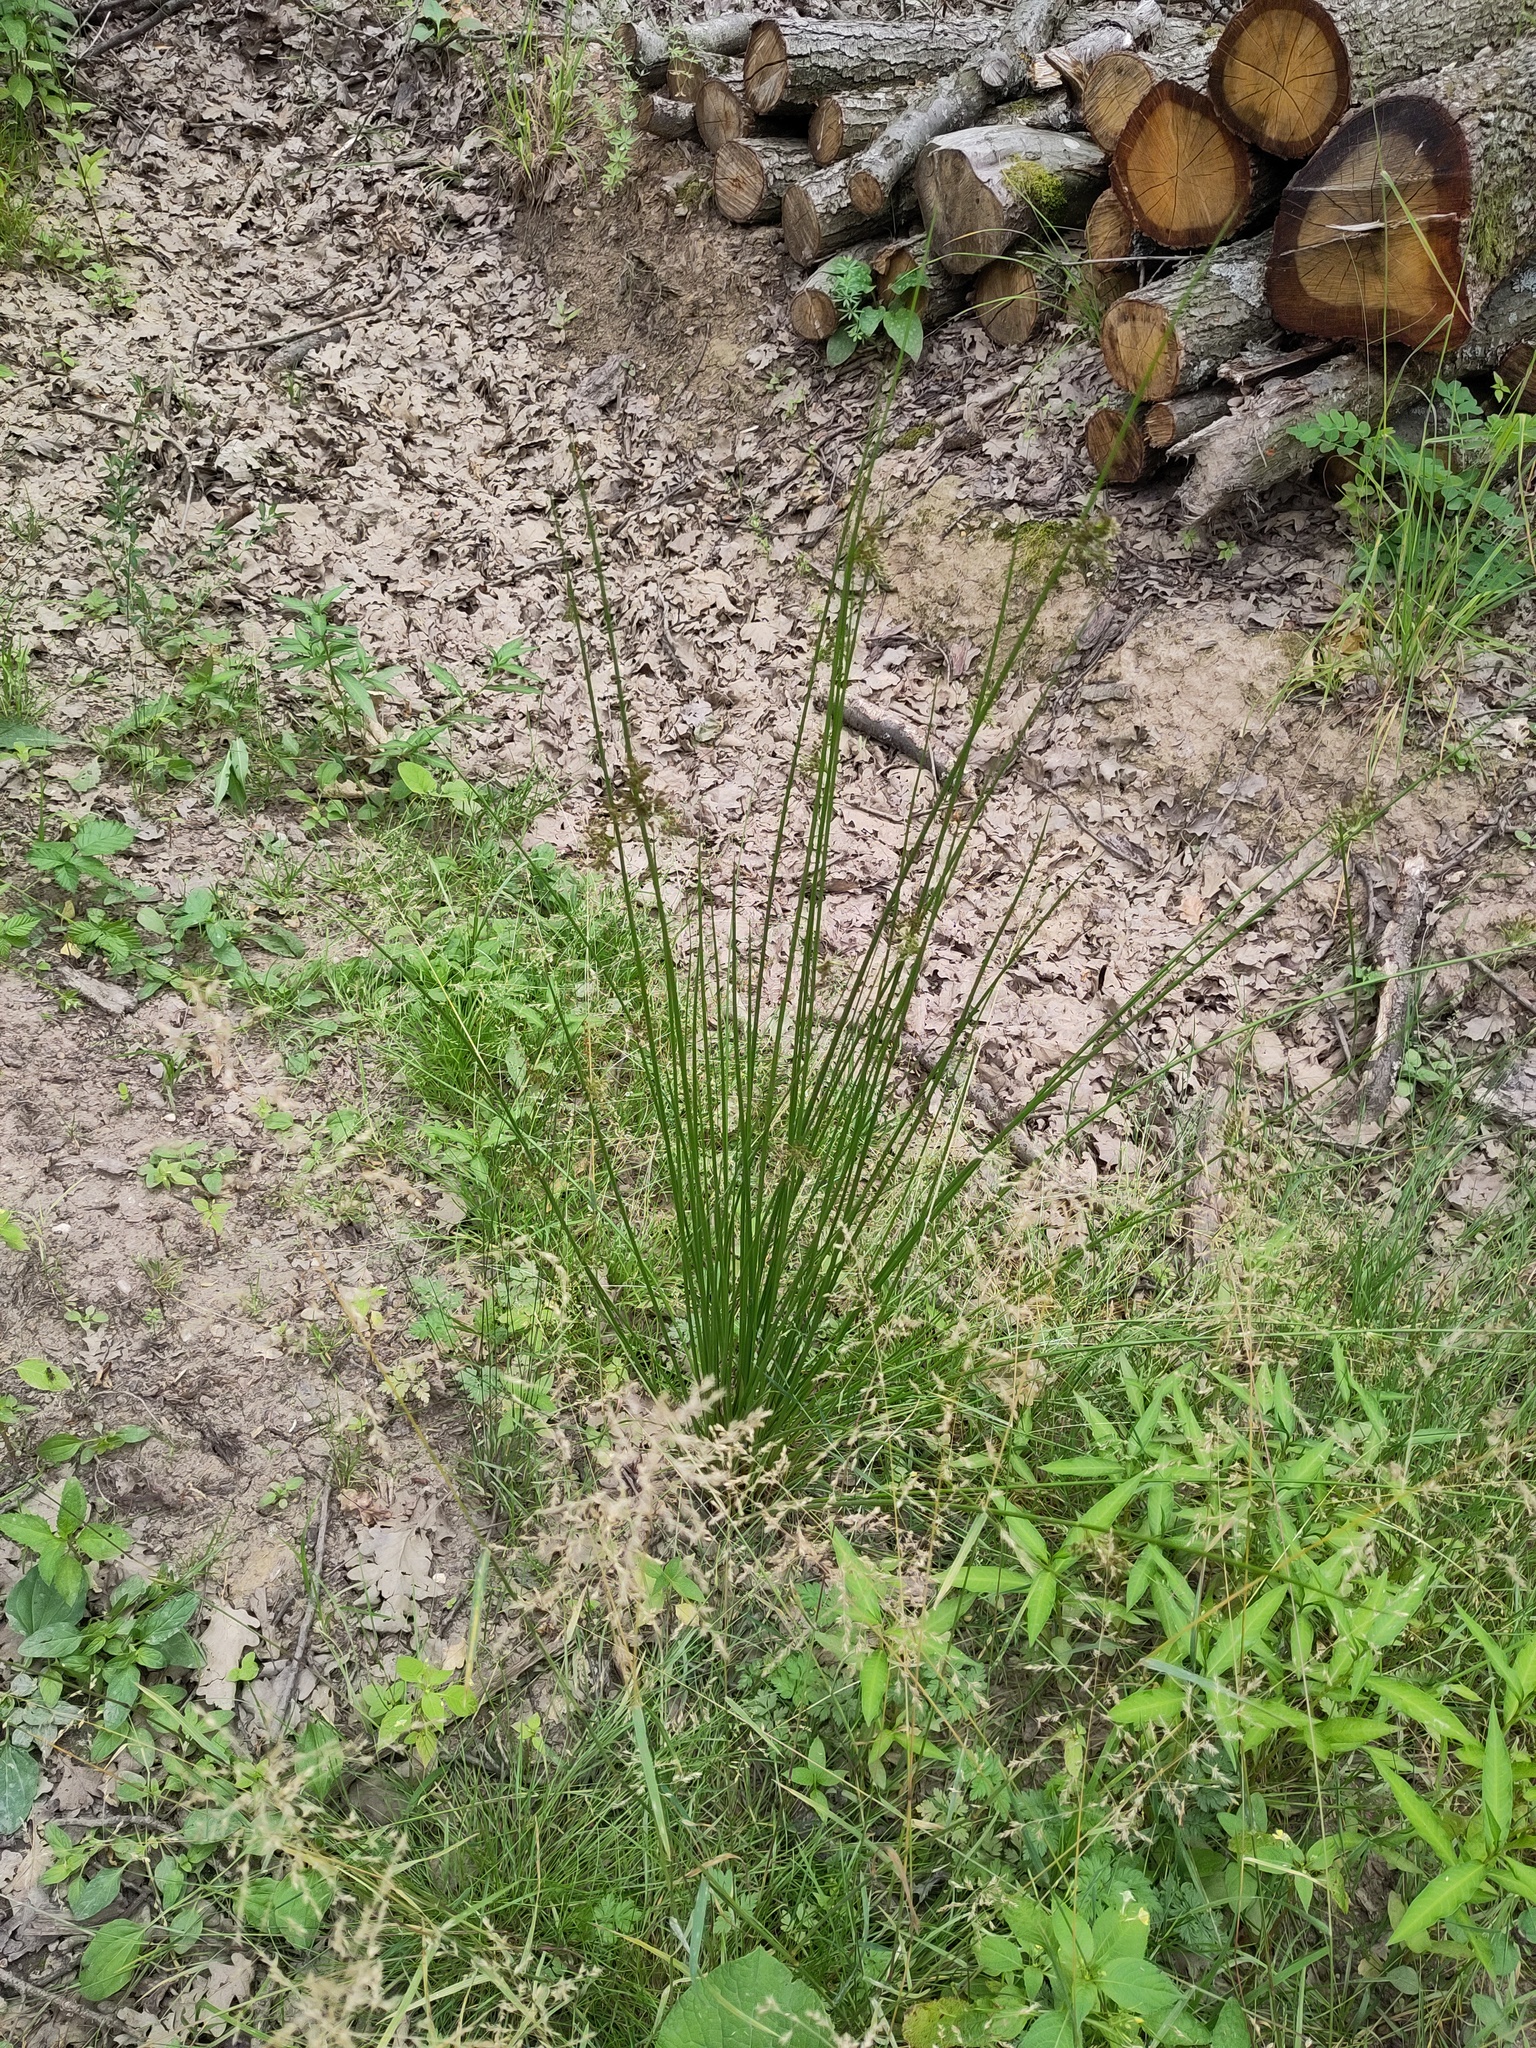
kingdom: Plantae
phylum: Tracheophyta
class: Liliopsida
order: Poales
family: Juncaceae
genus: Juncus
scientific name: Juncus effusus
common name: Soft rush
